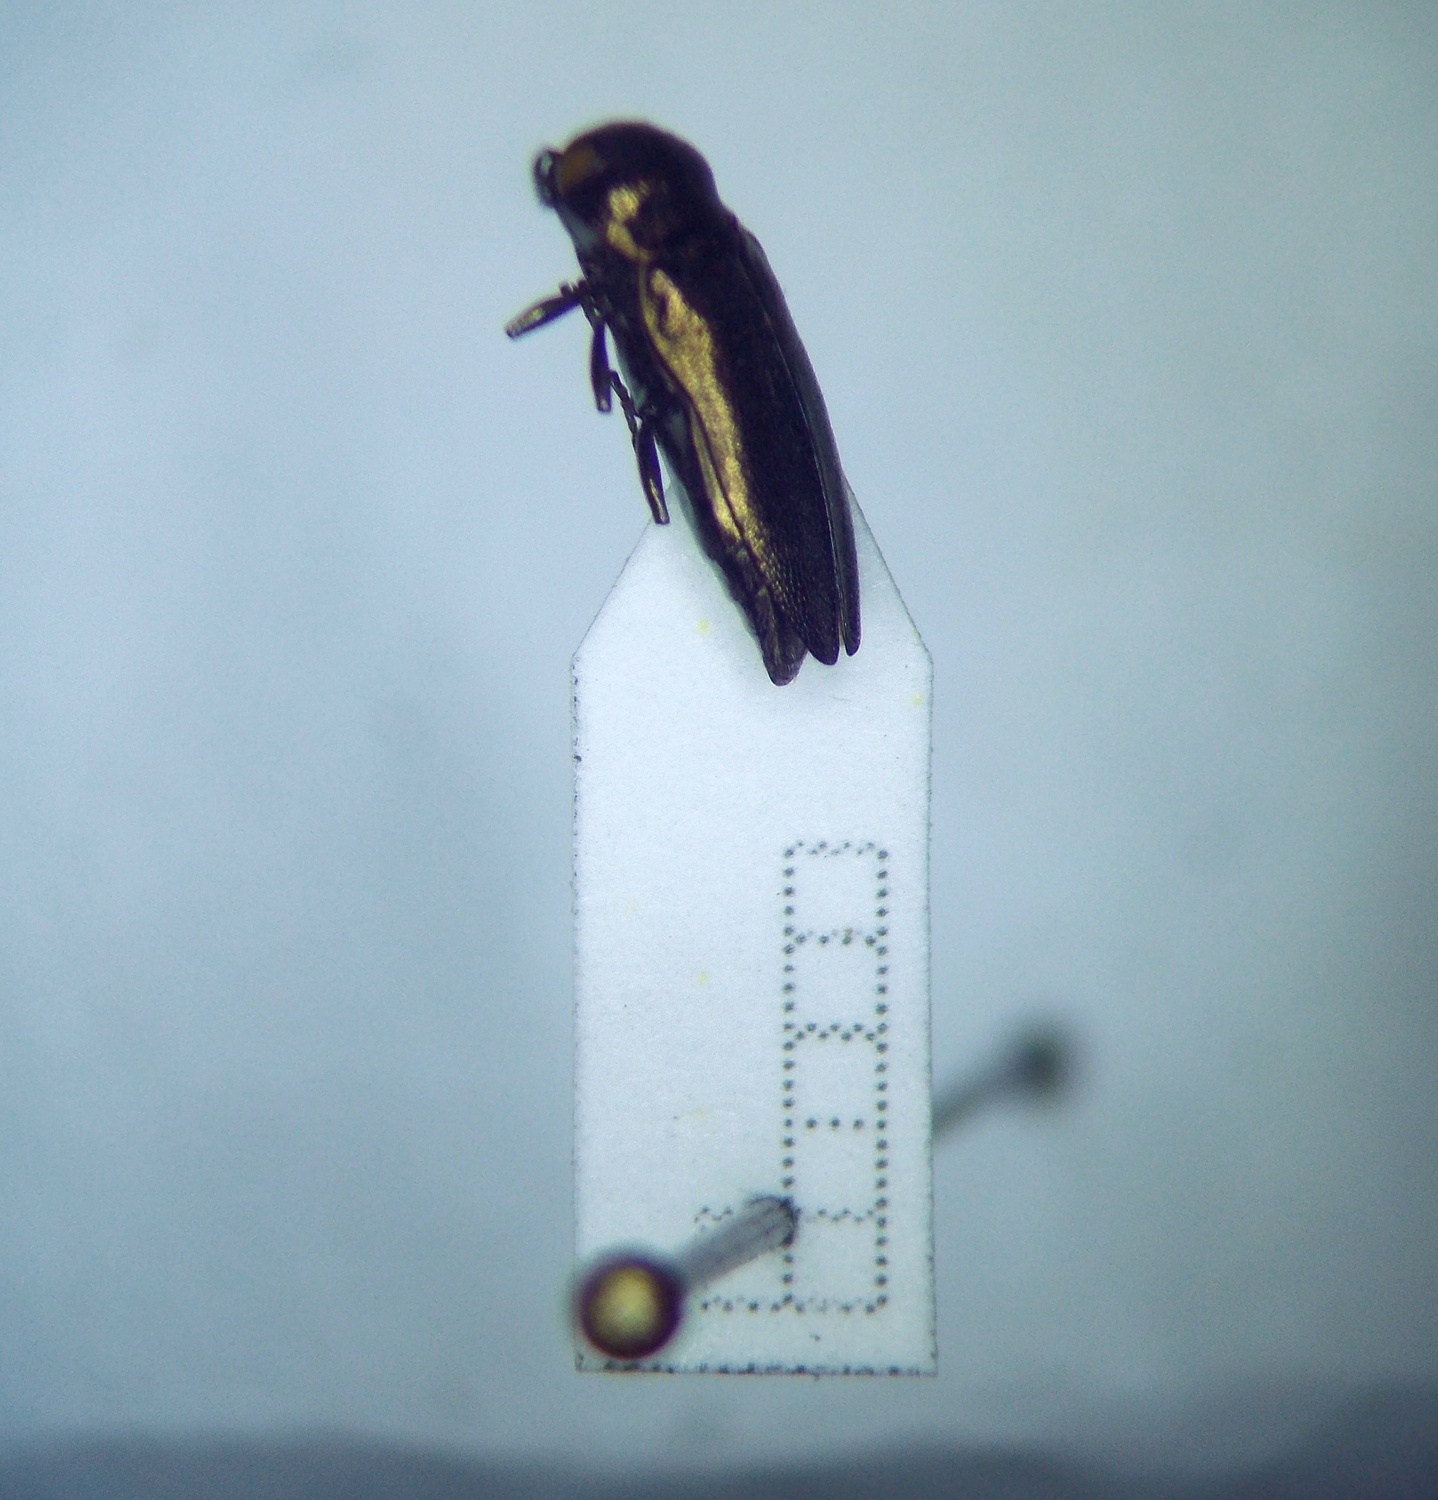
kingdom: Animalia
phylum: Arthropoda
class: Insecta
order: Coleoptera
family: Buprestidae
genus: Coraebus
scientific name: Coraebus elatus
